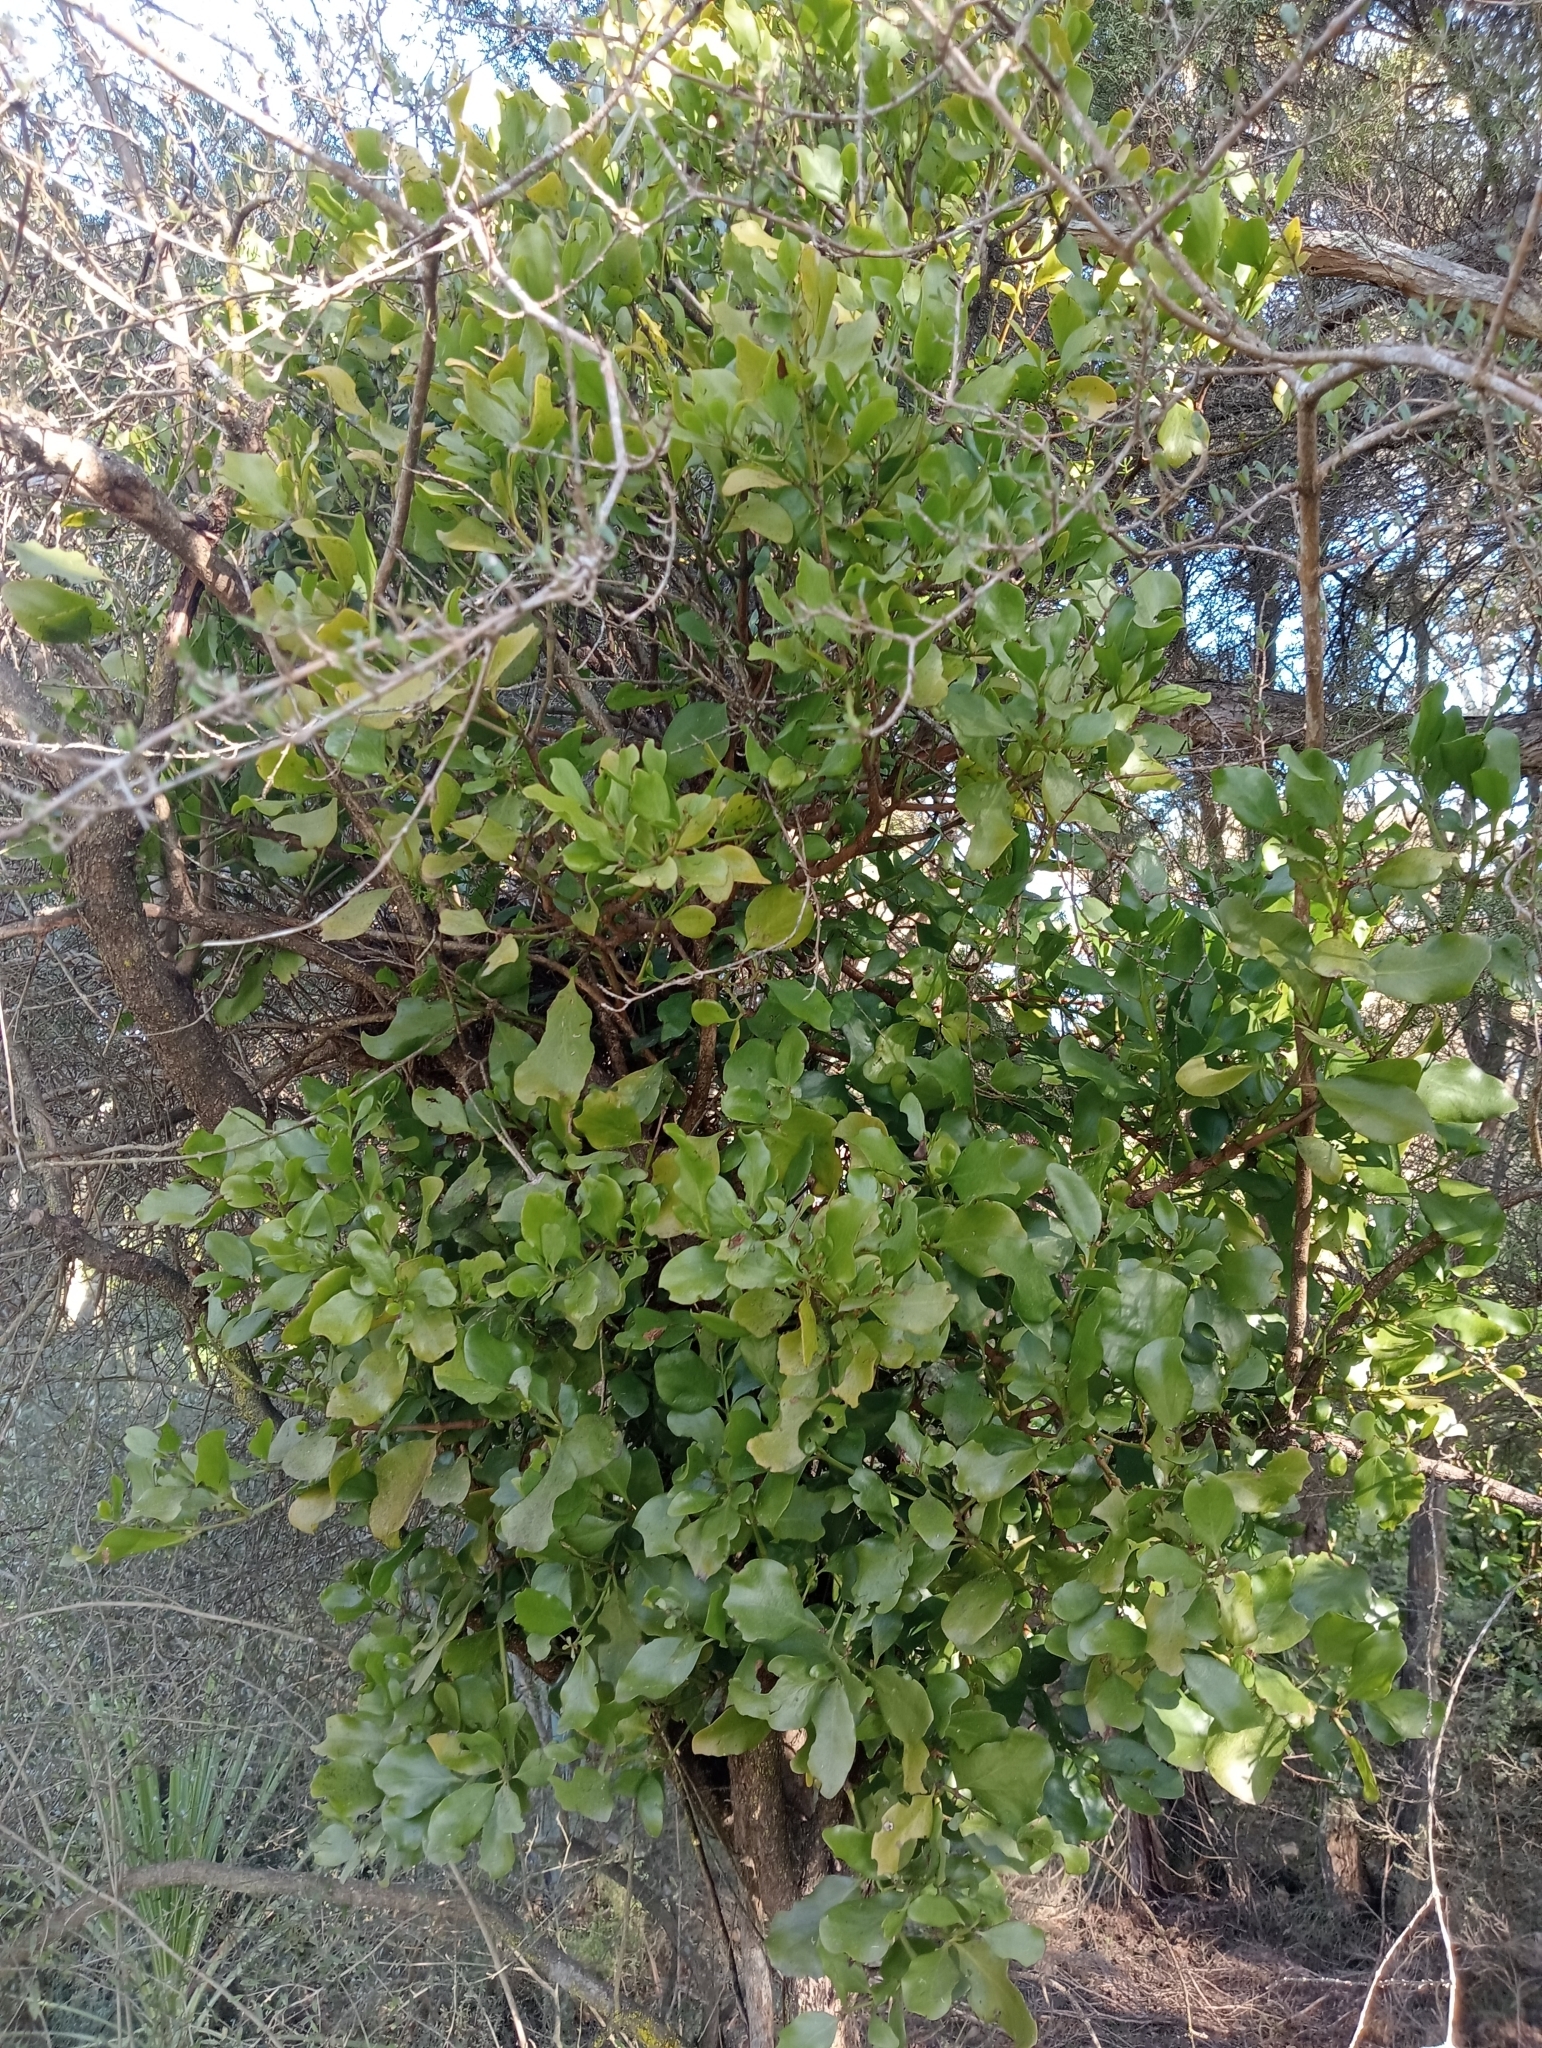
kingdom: Plantae
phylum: Tracheophyta
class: Magnoliopsida
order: Santalales
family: Loranthaceae
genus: Ileostylus
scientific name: Ileostylus micranthus
